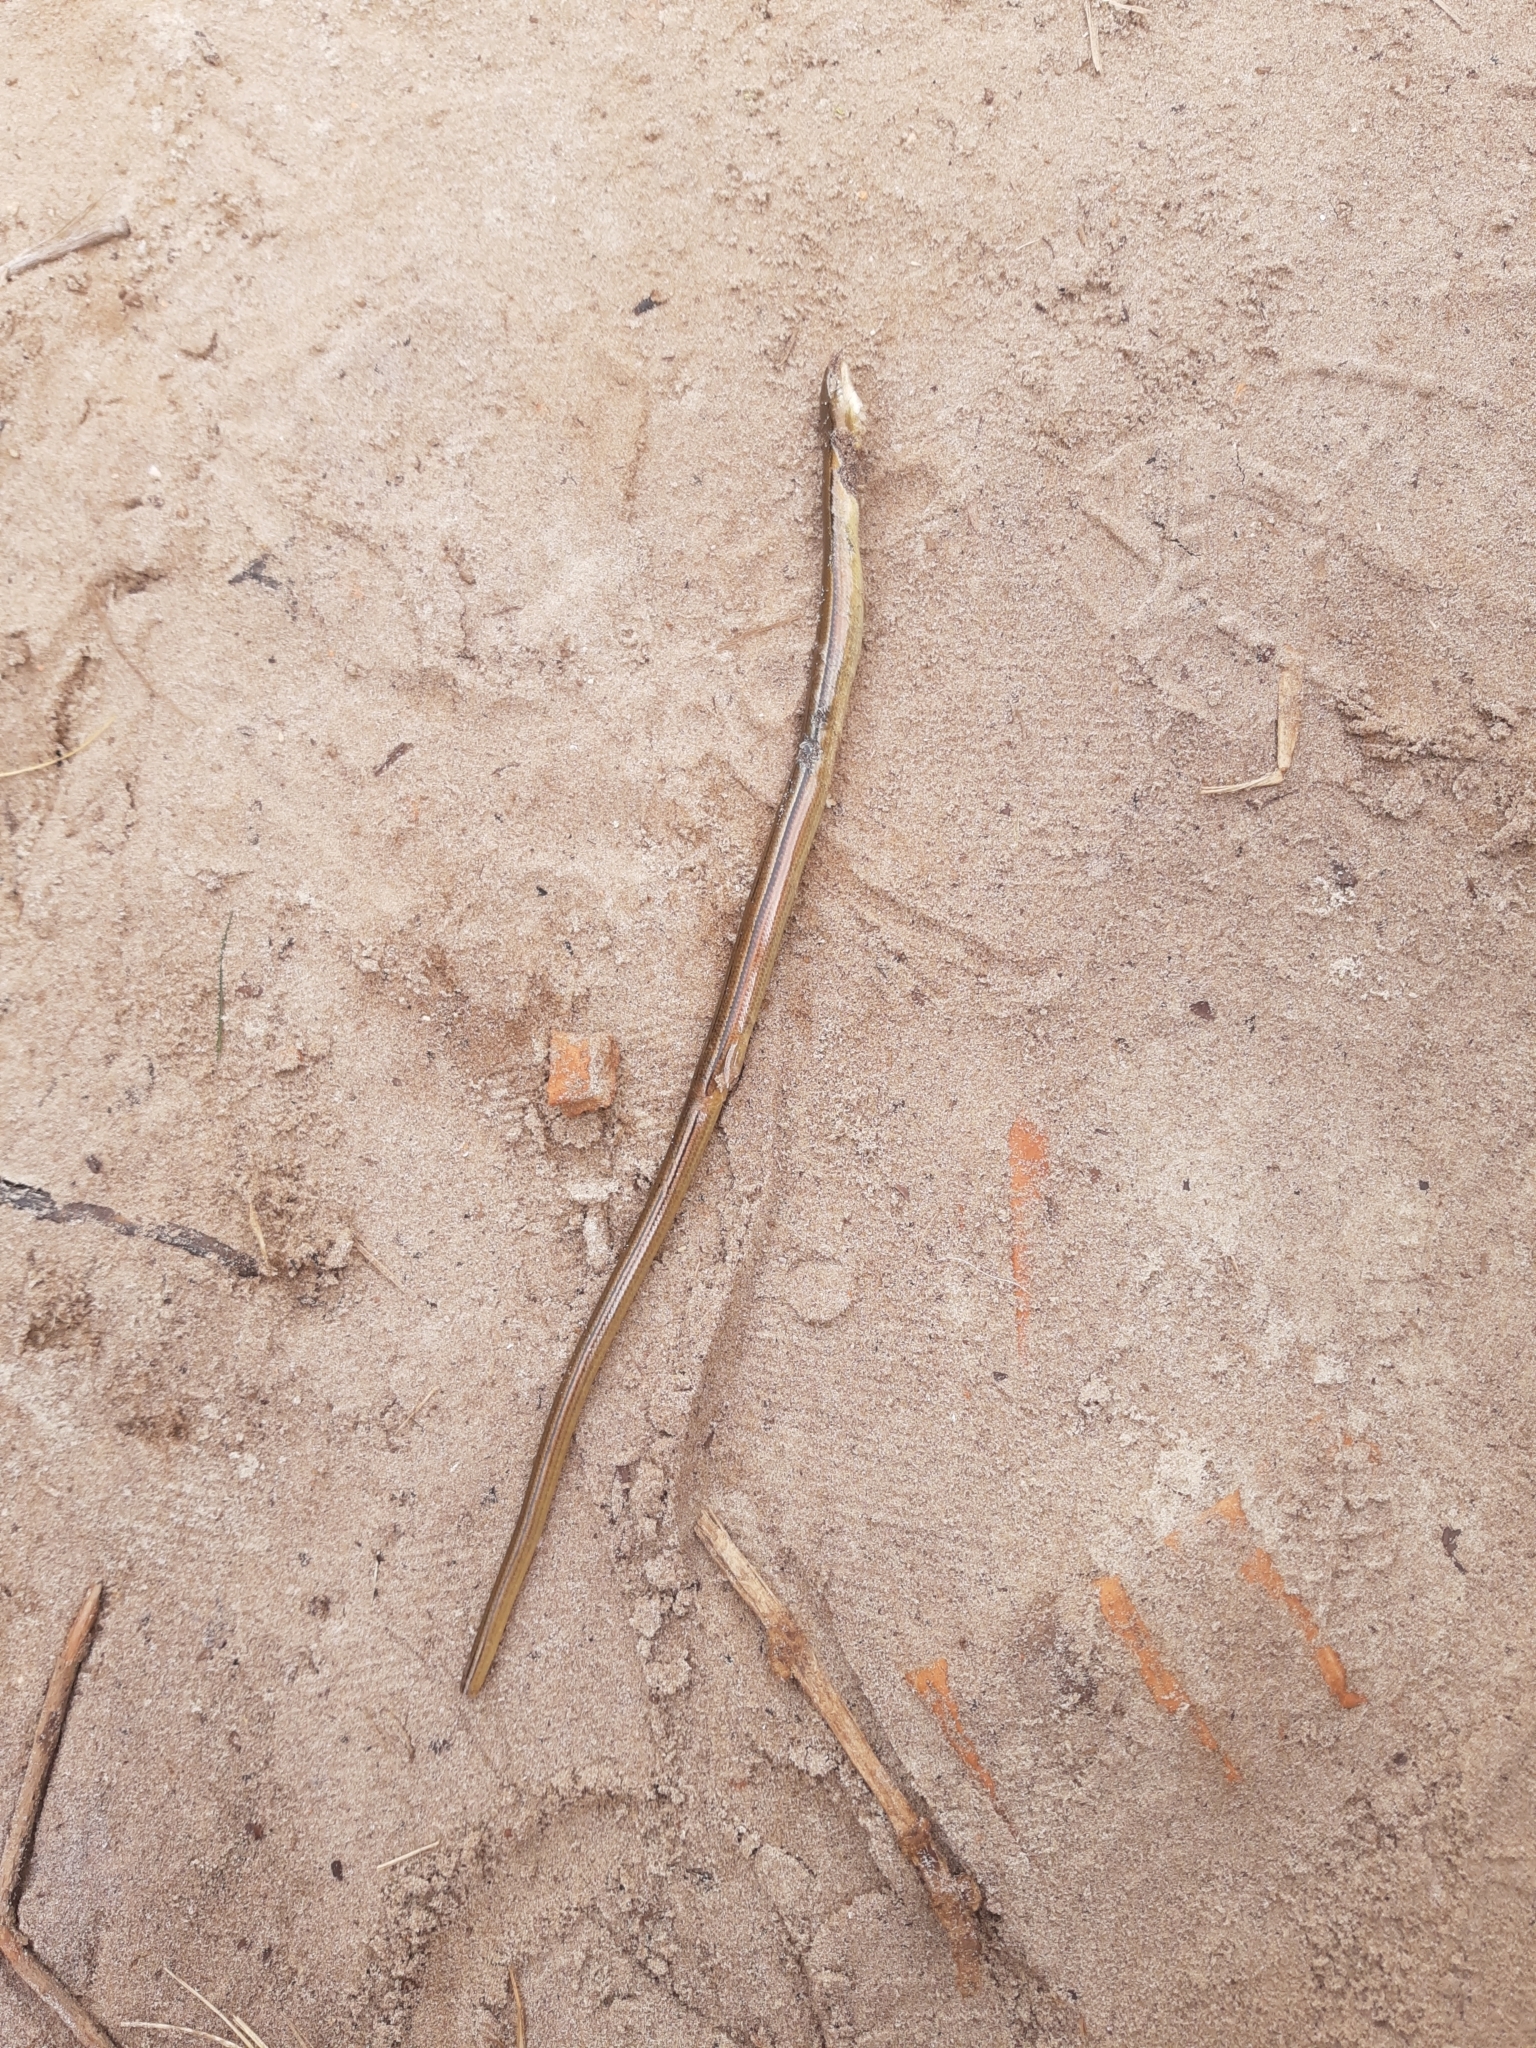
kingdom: Animalia
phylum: Chordata
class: Squamata
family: Diploglossidae
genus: Ophiodes
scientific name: Ophiodes fragilis
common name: Fragile worm lizard
